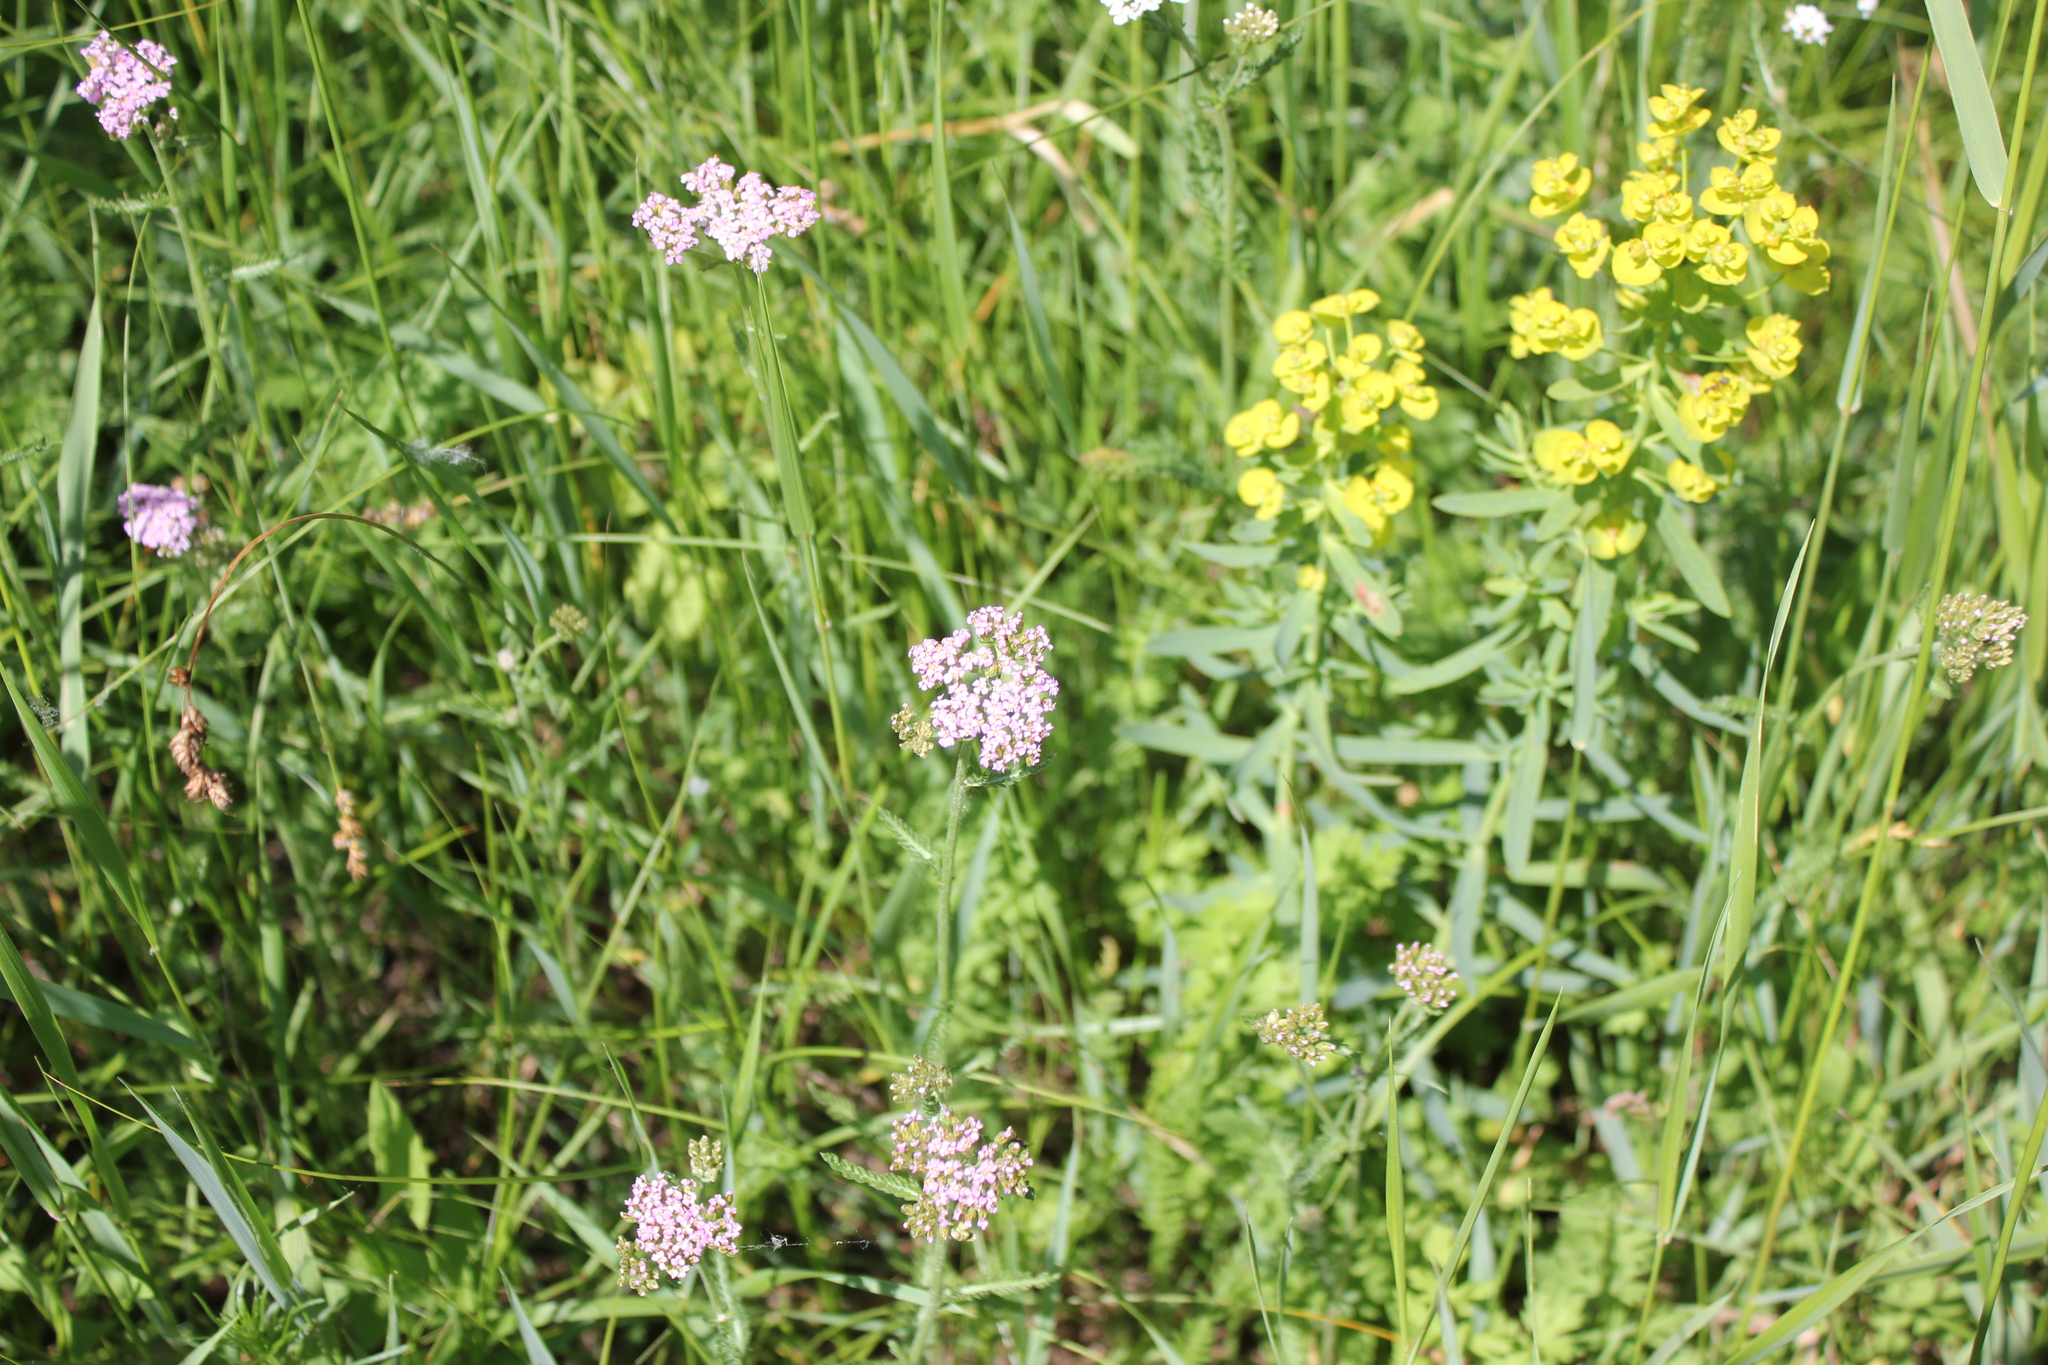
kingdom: Plantae
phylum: Tracheophyta
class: Magnoliopsida
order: Asterales
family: Asteraceae
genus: Achillea
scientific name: Achillea millefolium
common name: Yarrow
